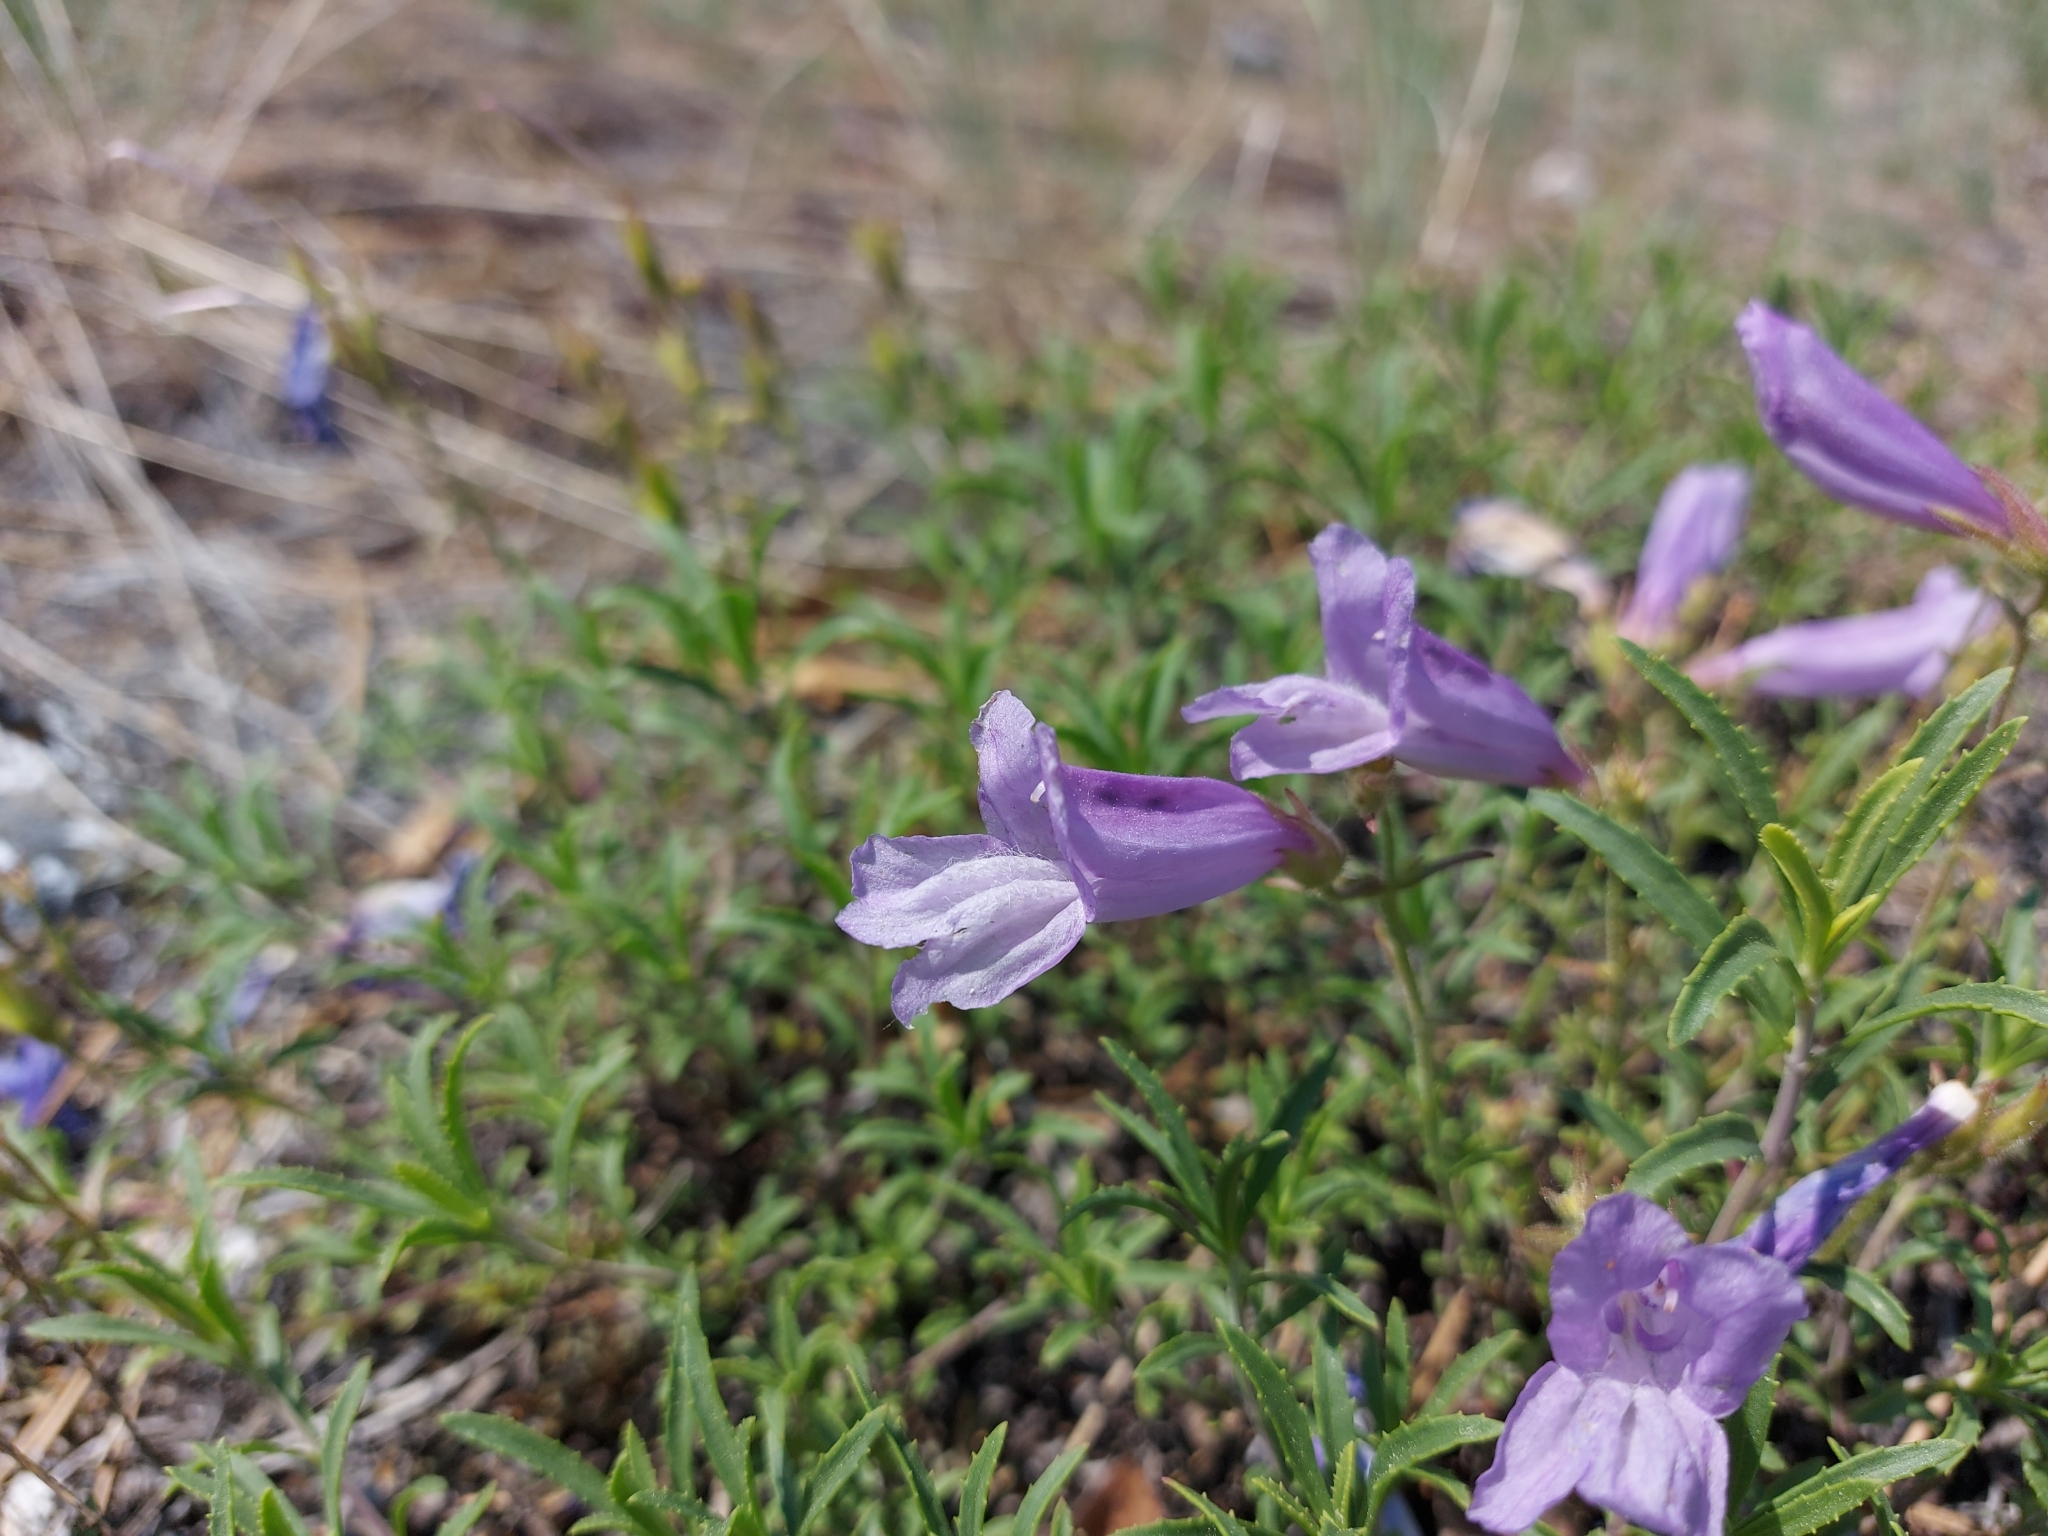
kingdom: Plantae
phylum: Tracheophyta
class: Magnoliopsida
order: Lamiales
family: Plantaginaceae
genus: Penstemon
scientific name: Penstemon fruticosus
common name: Bush penstemon
